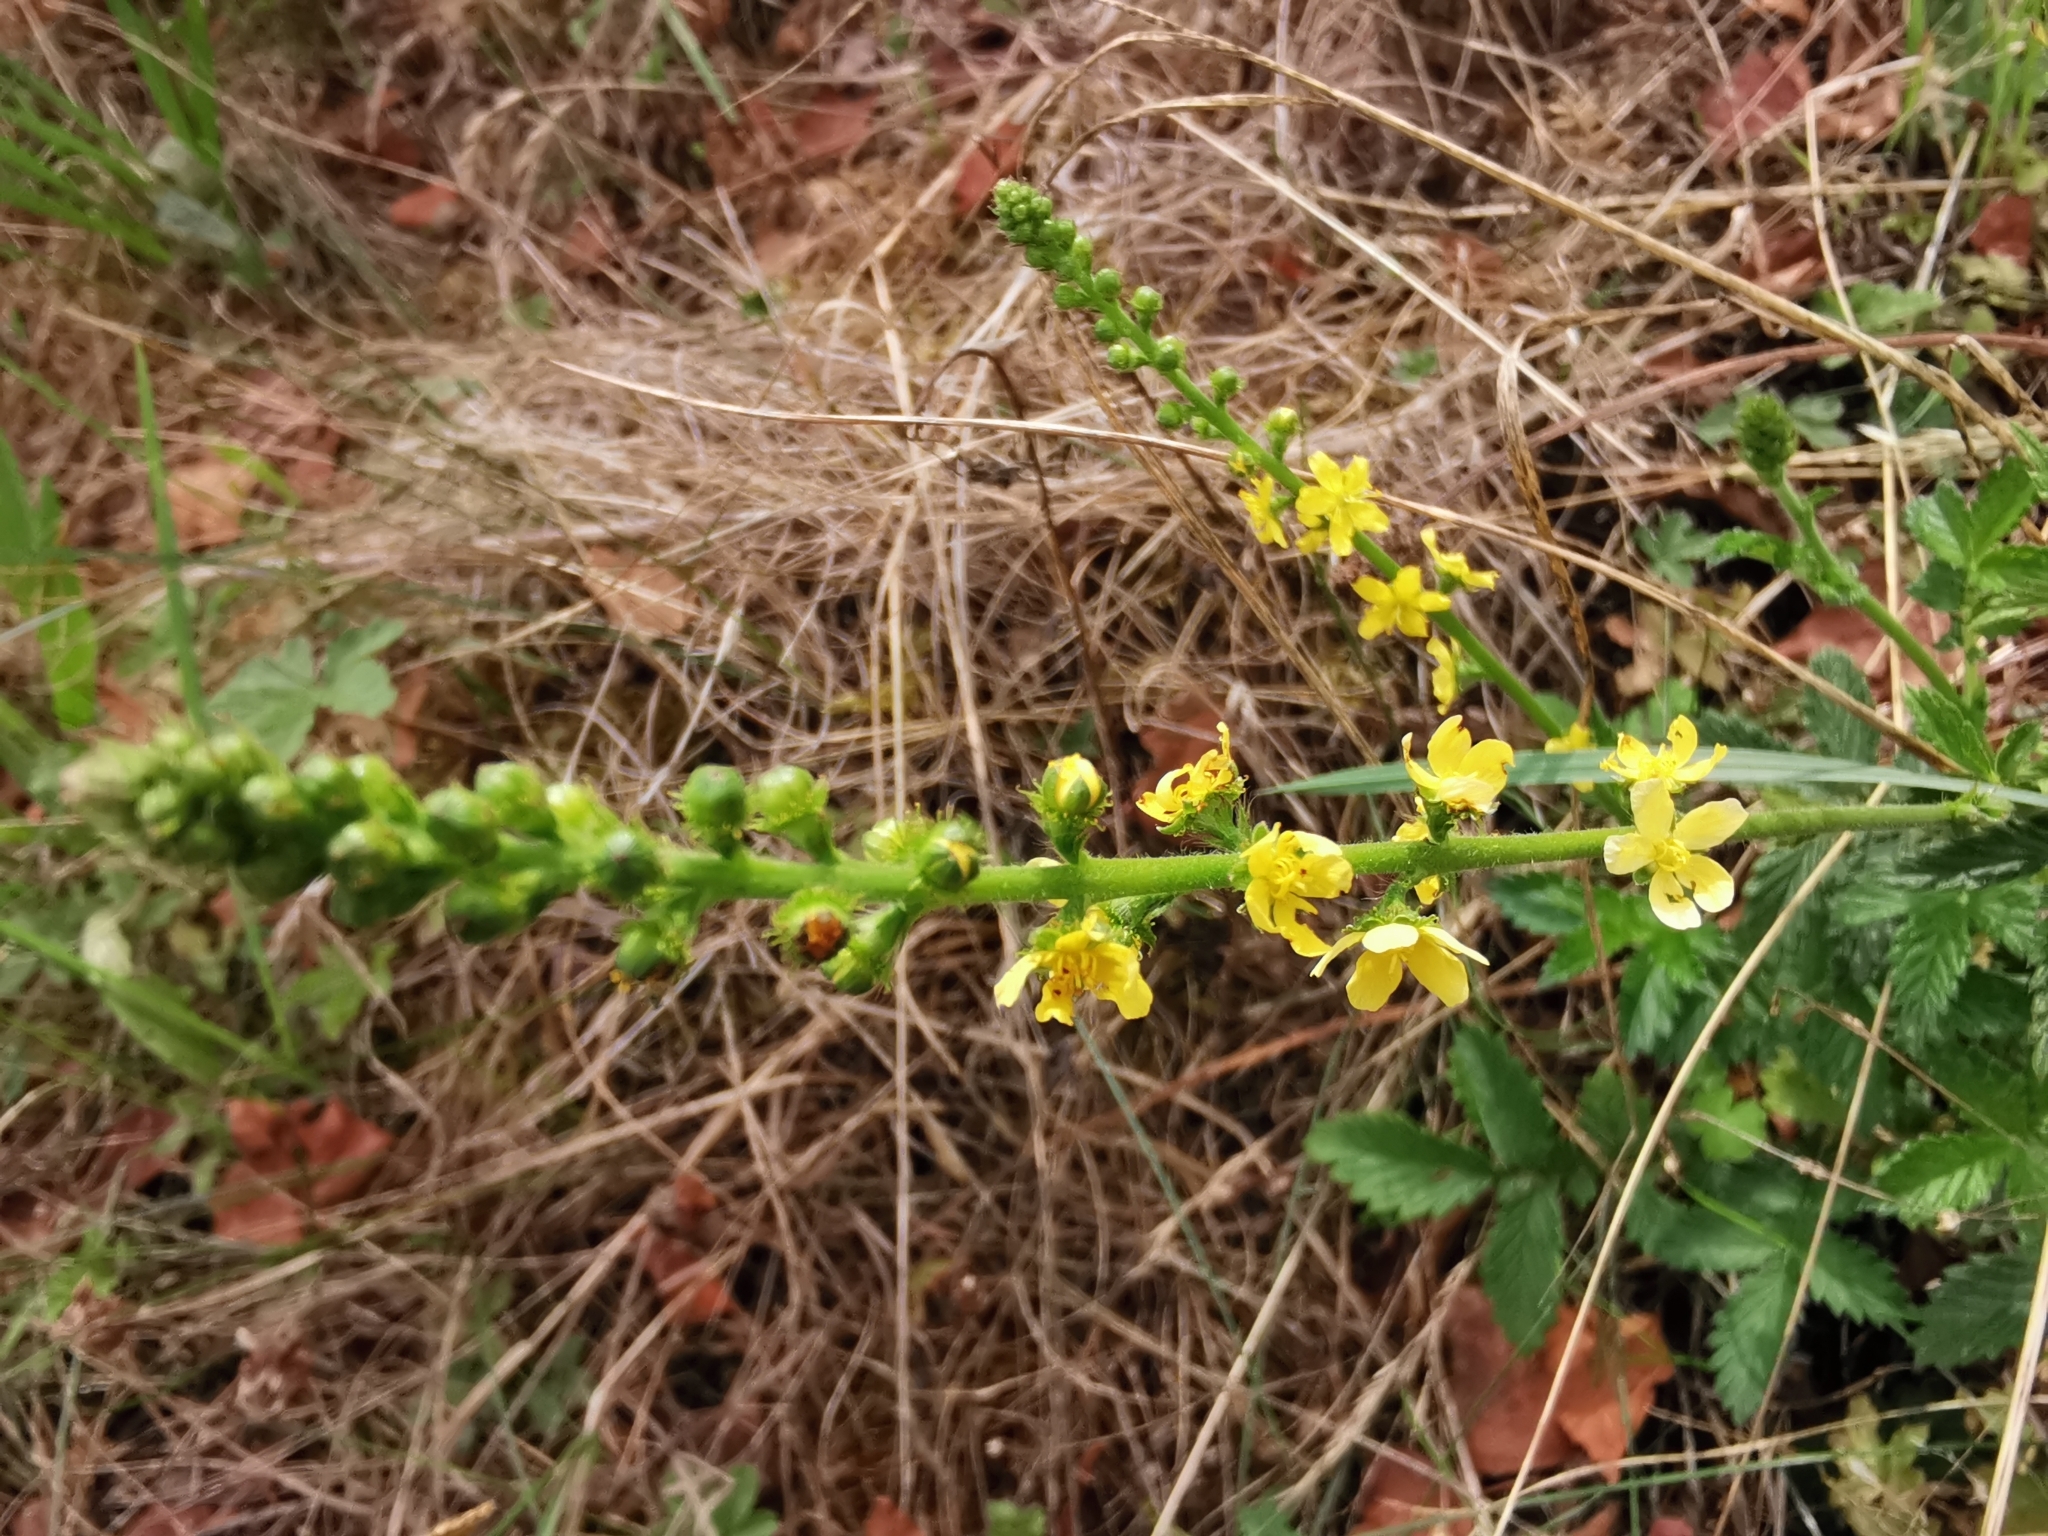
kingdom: Plantae
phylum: Tracheophyta
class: Magnoliopsida
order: Rosales
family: Rosaceae
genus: Agrimonia
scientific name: Agrimonia eupatoria
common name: Agrimony
